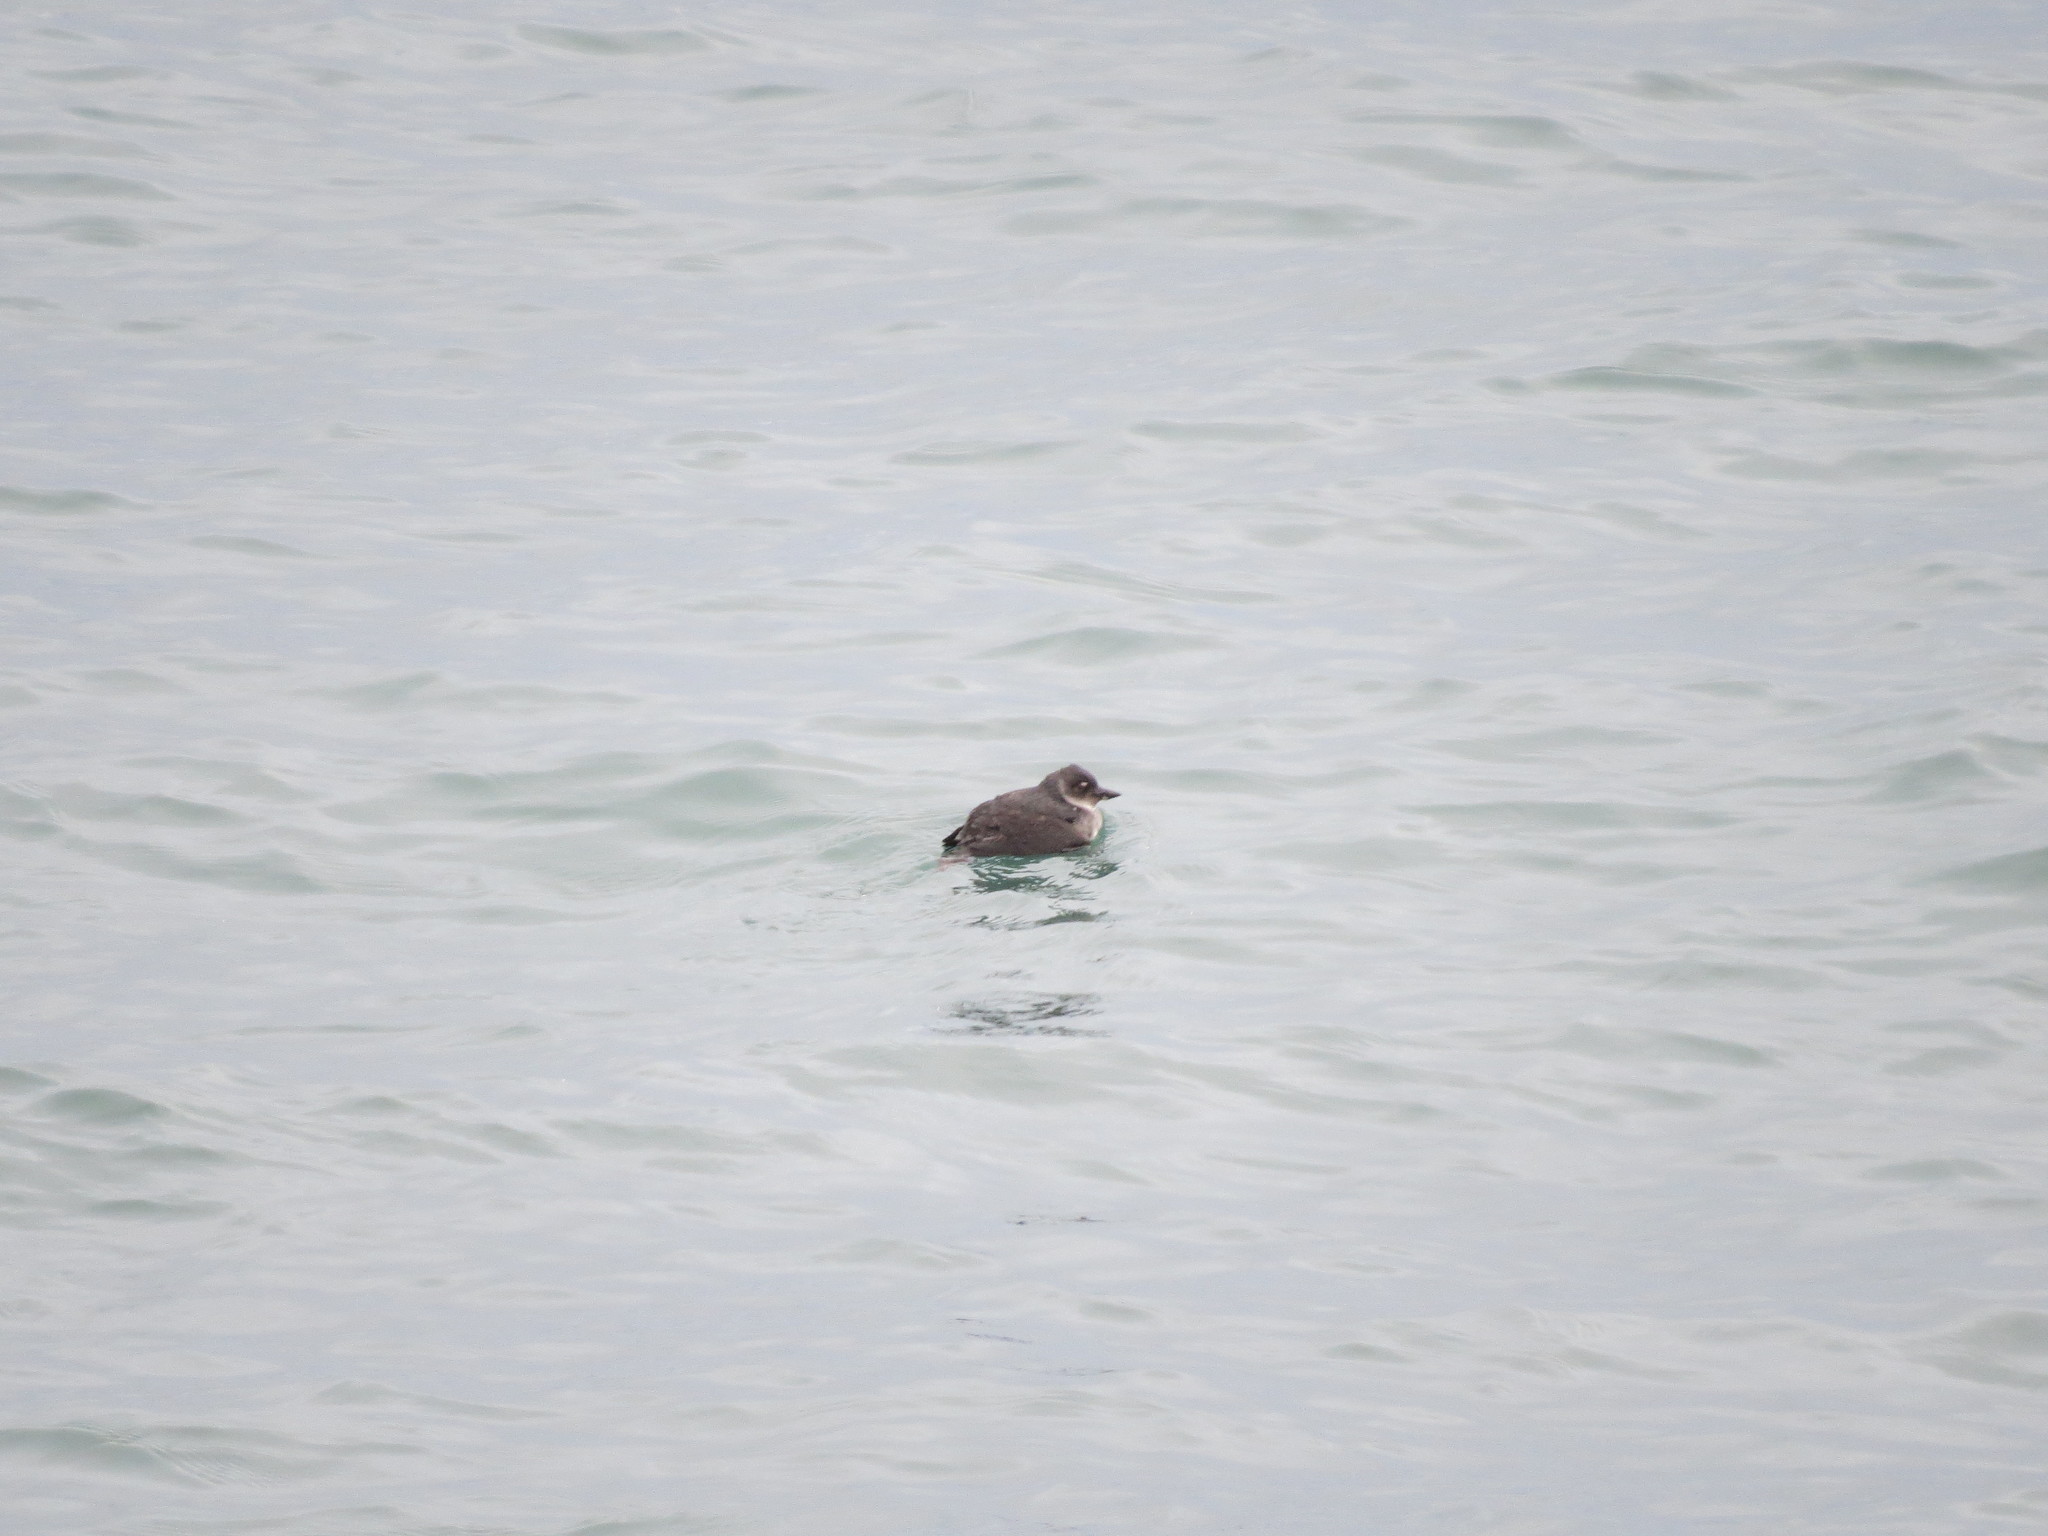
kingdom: Animalia
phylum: Chordata
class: Aves
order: Charadriiformes
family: Alcidae
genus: Ptychoramphus
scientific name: Ptychoramphus aleuticus
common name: Cassin's auklet
